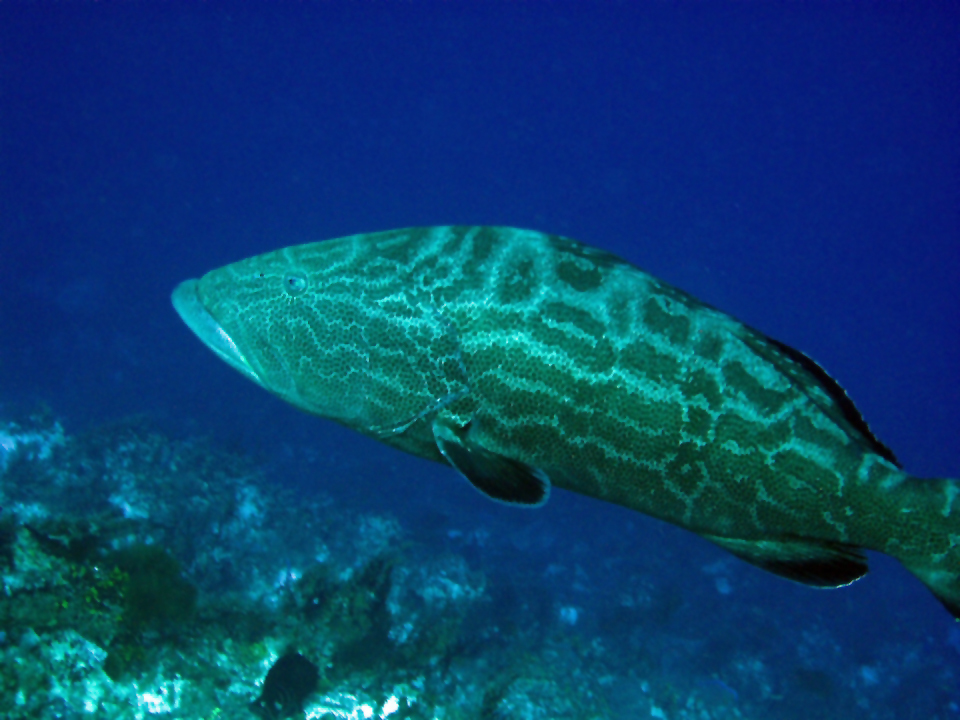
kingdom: Animalia
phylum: Chordata
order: Perciformes
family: Serranidae
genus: Mycteroperca
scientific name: Mycteroperca bonaci
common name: Black grouper
